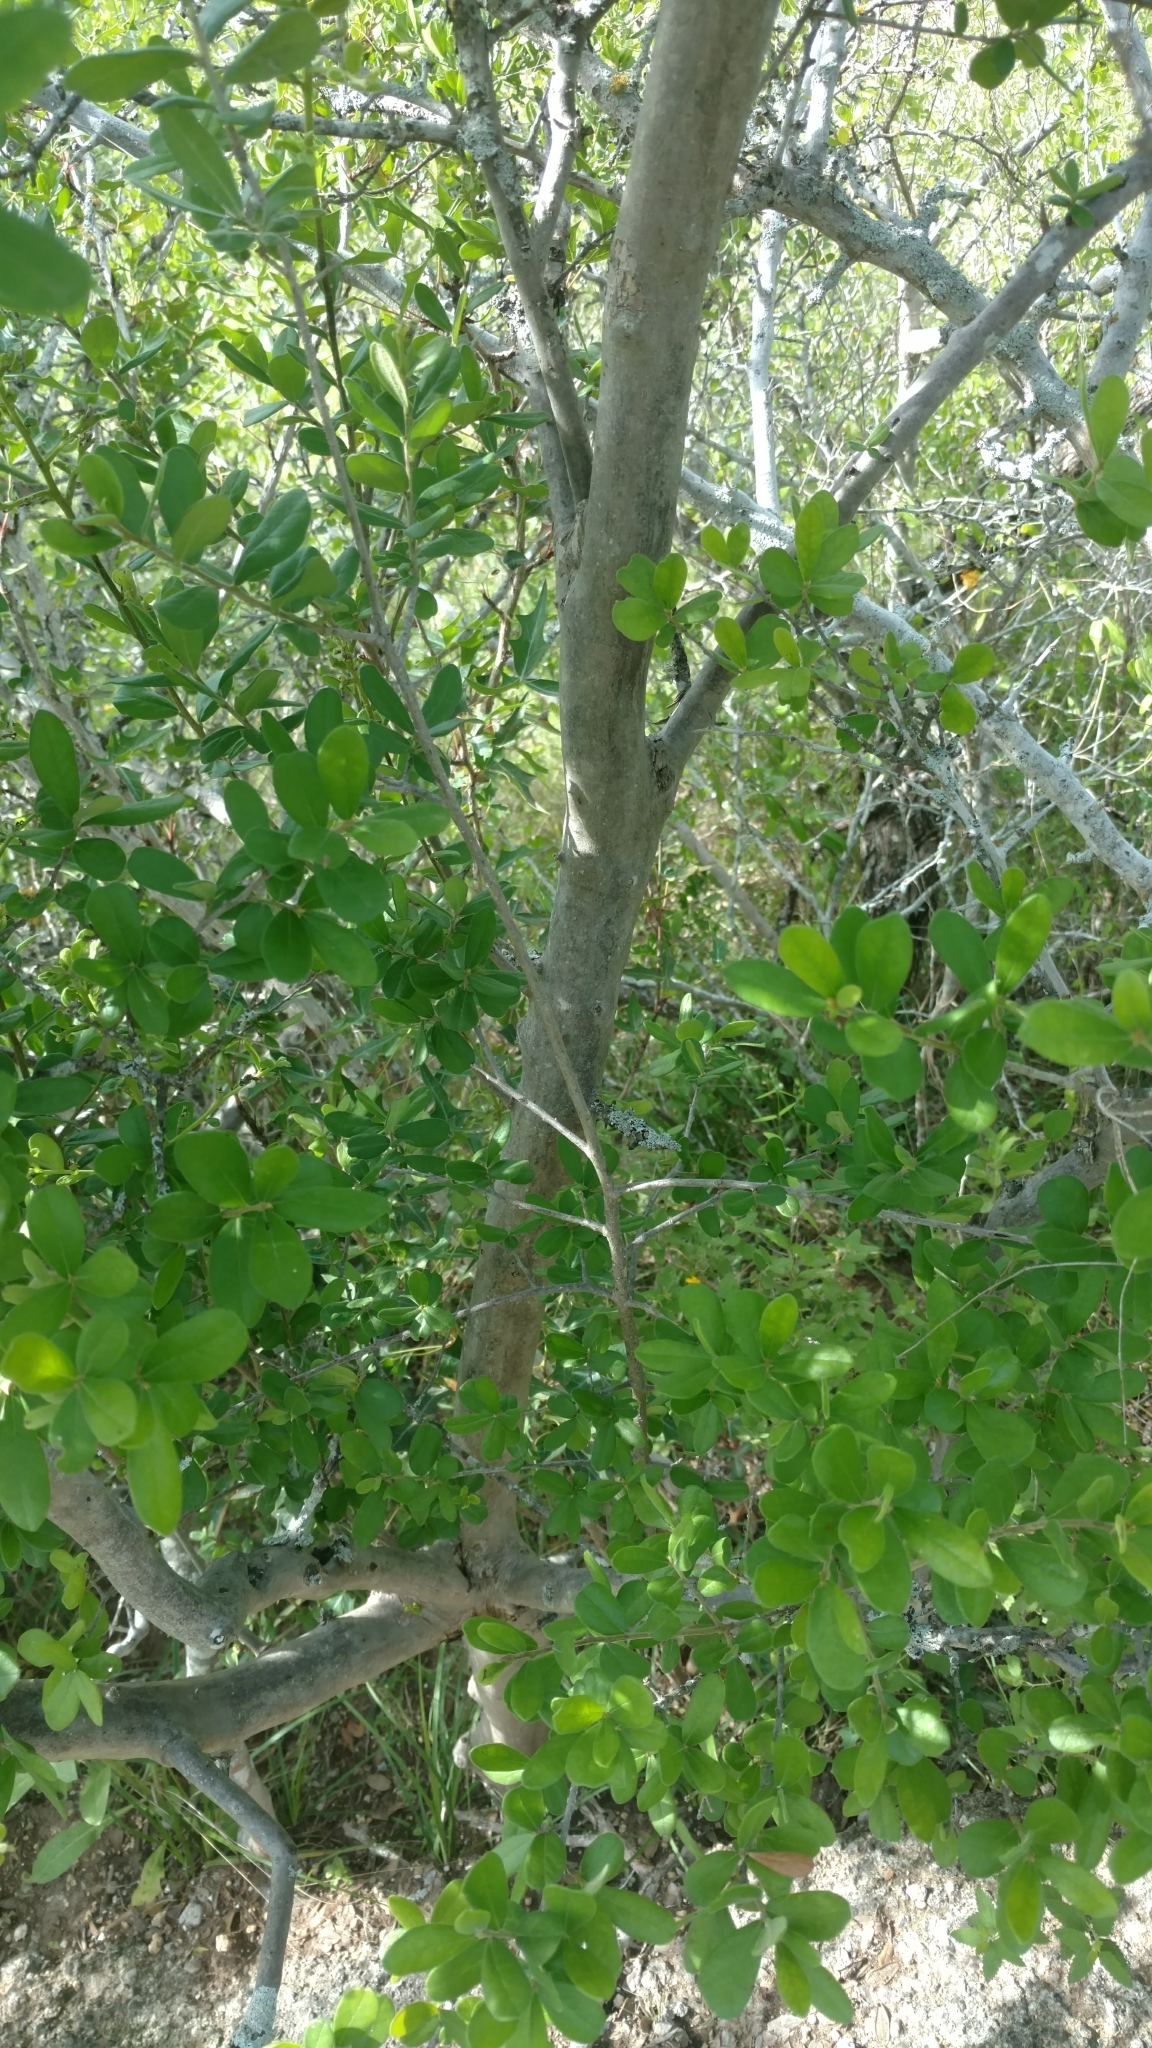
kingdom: Plantae
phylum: Tracheophyta
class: Magnoliopsida
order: Ericales
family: Ebenaceae
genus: Diospyros
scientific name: Diospyros texana
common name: Texas persimmon
